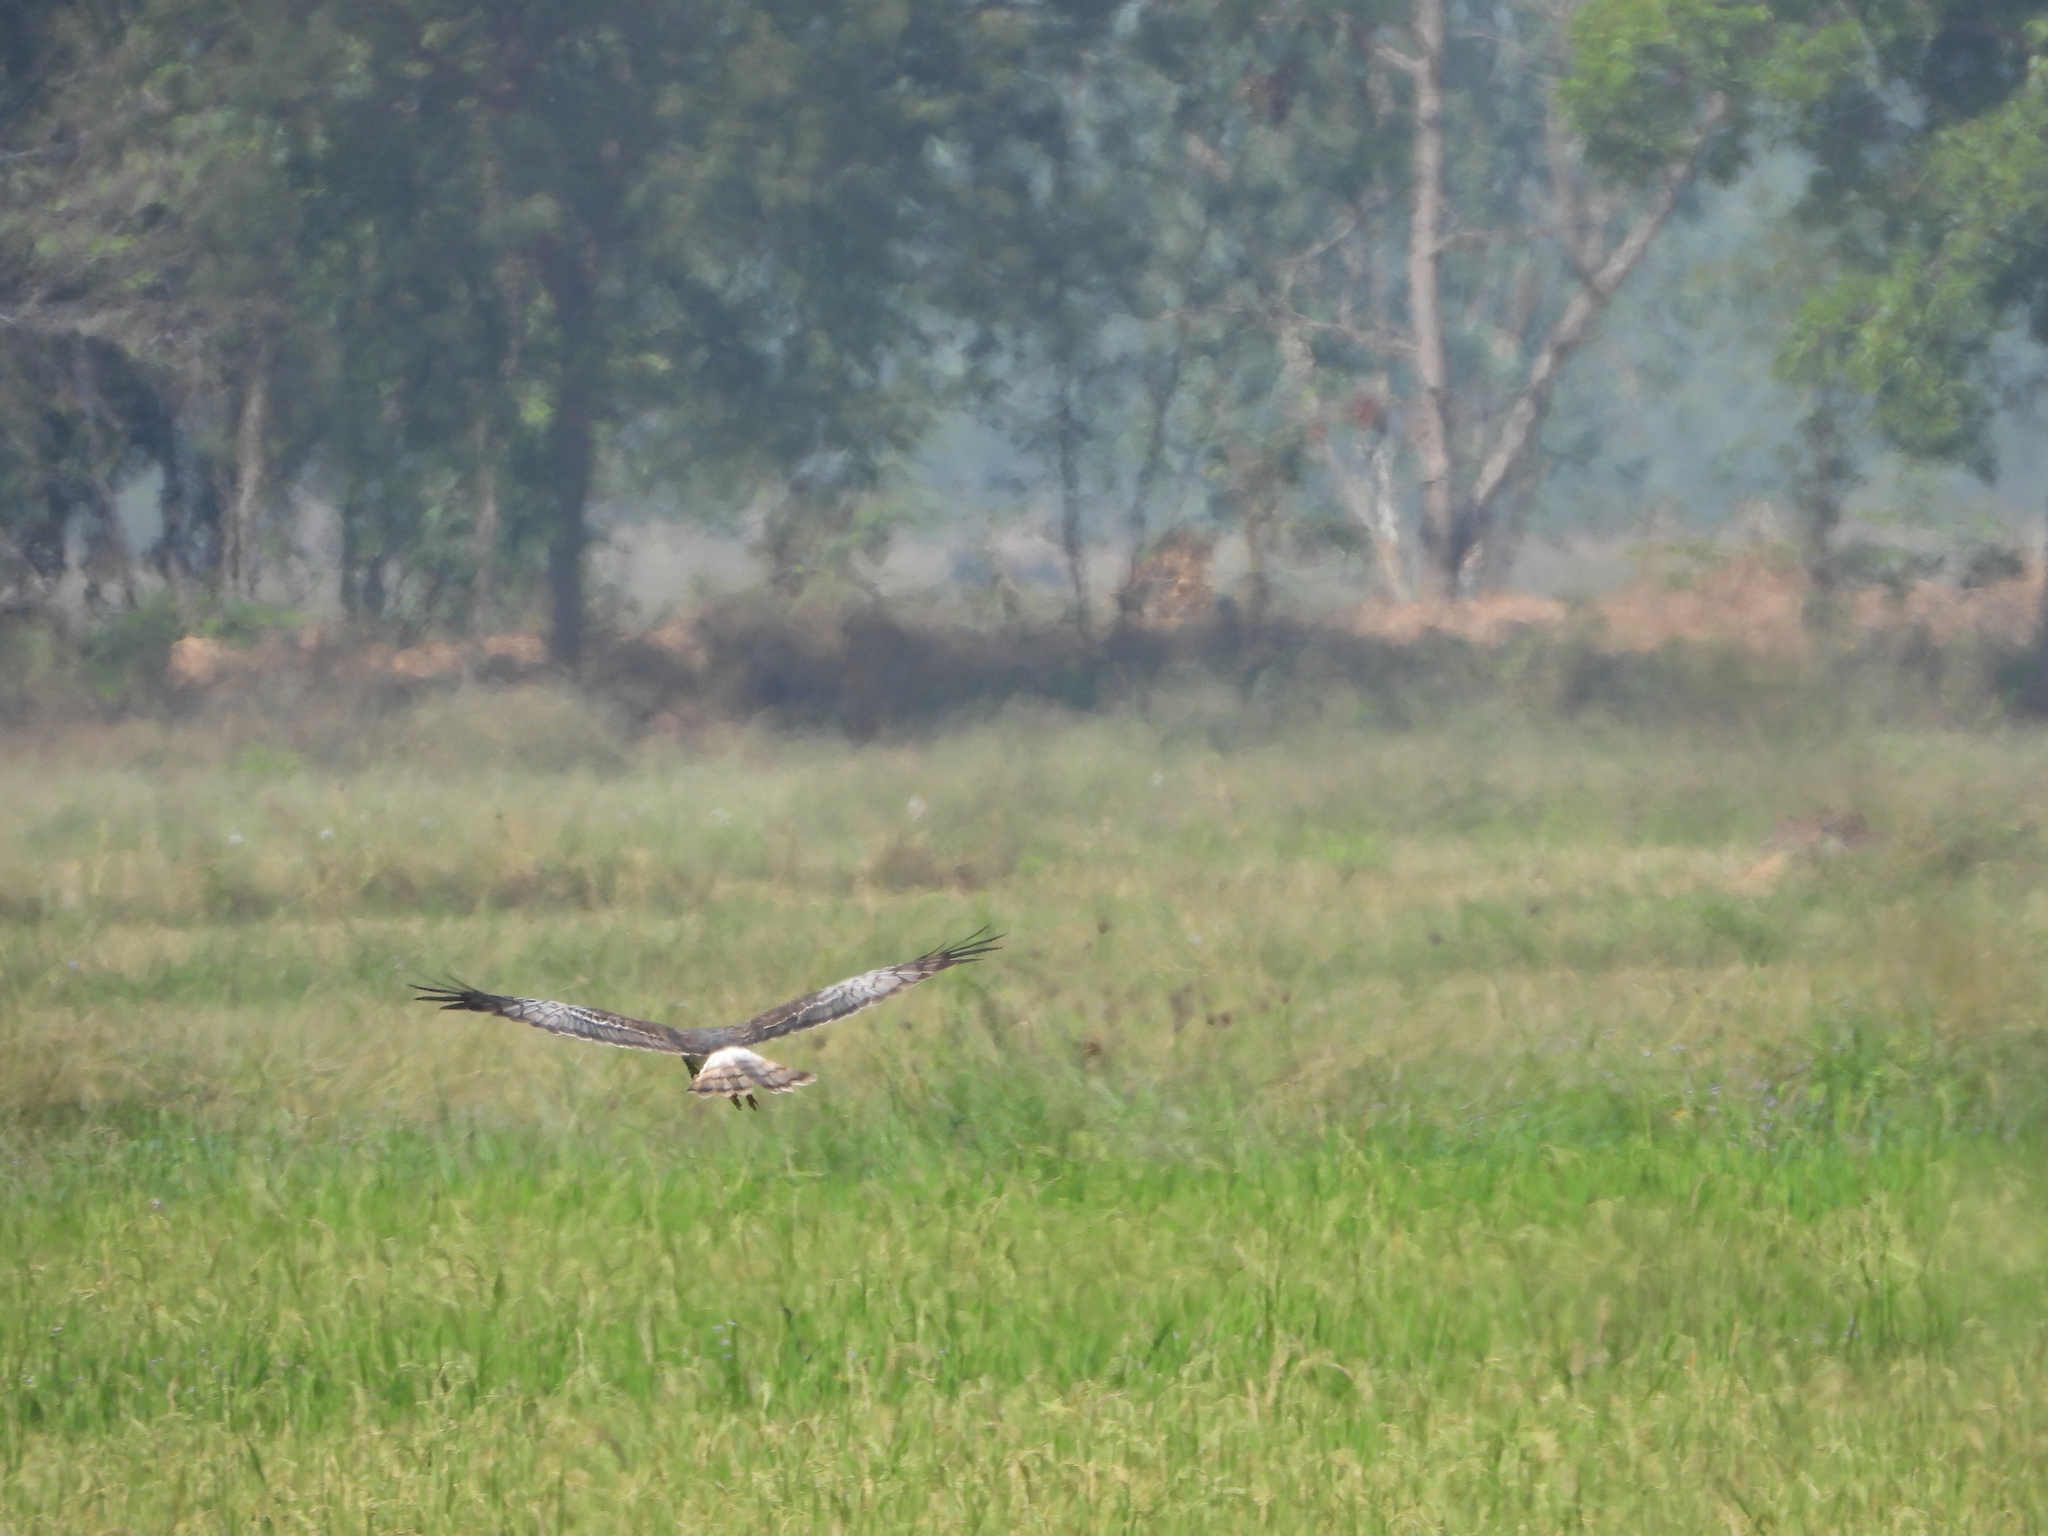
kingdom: Animalia
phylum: Chordata
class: Aves
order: Accipitriformes
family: Accipitridae
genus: Circus
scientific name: Circus spilonotus
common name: Eastern marsh-harrier
